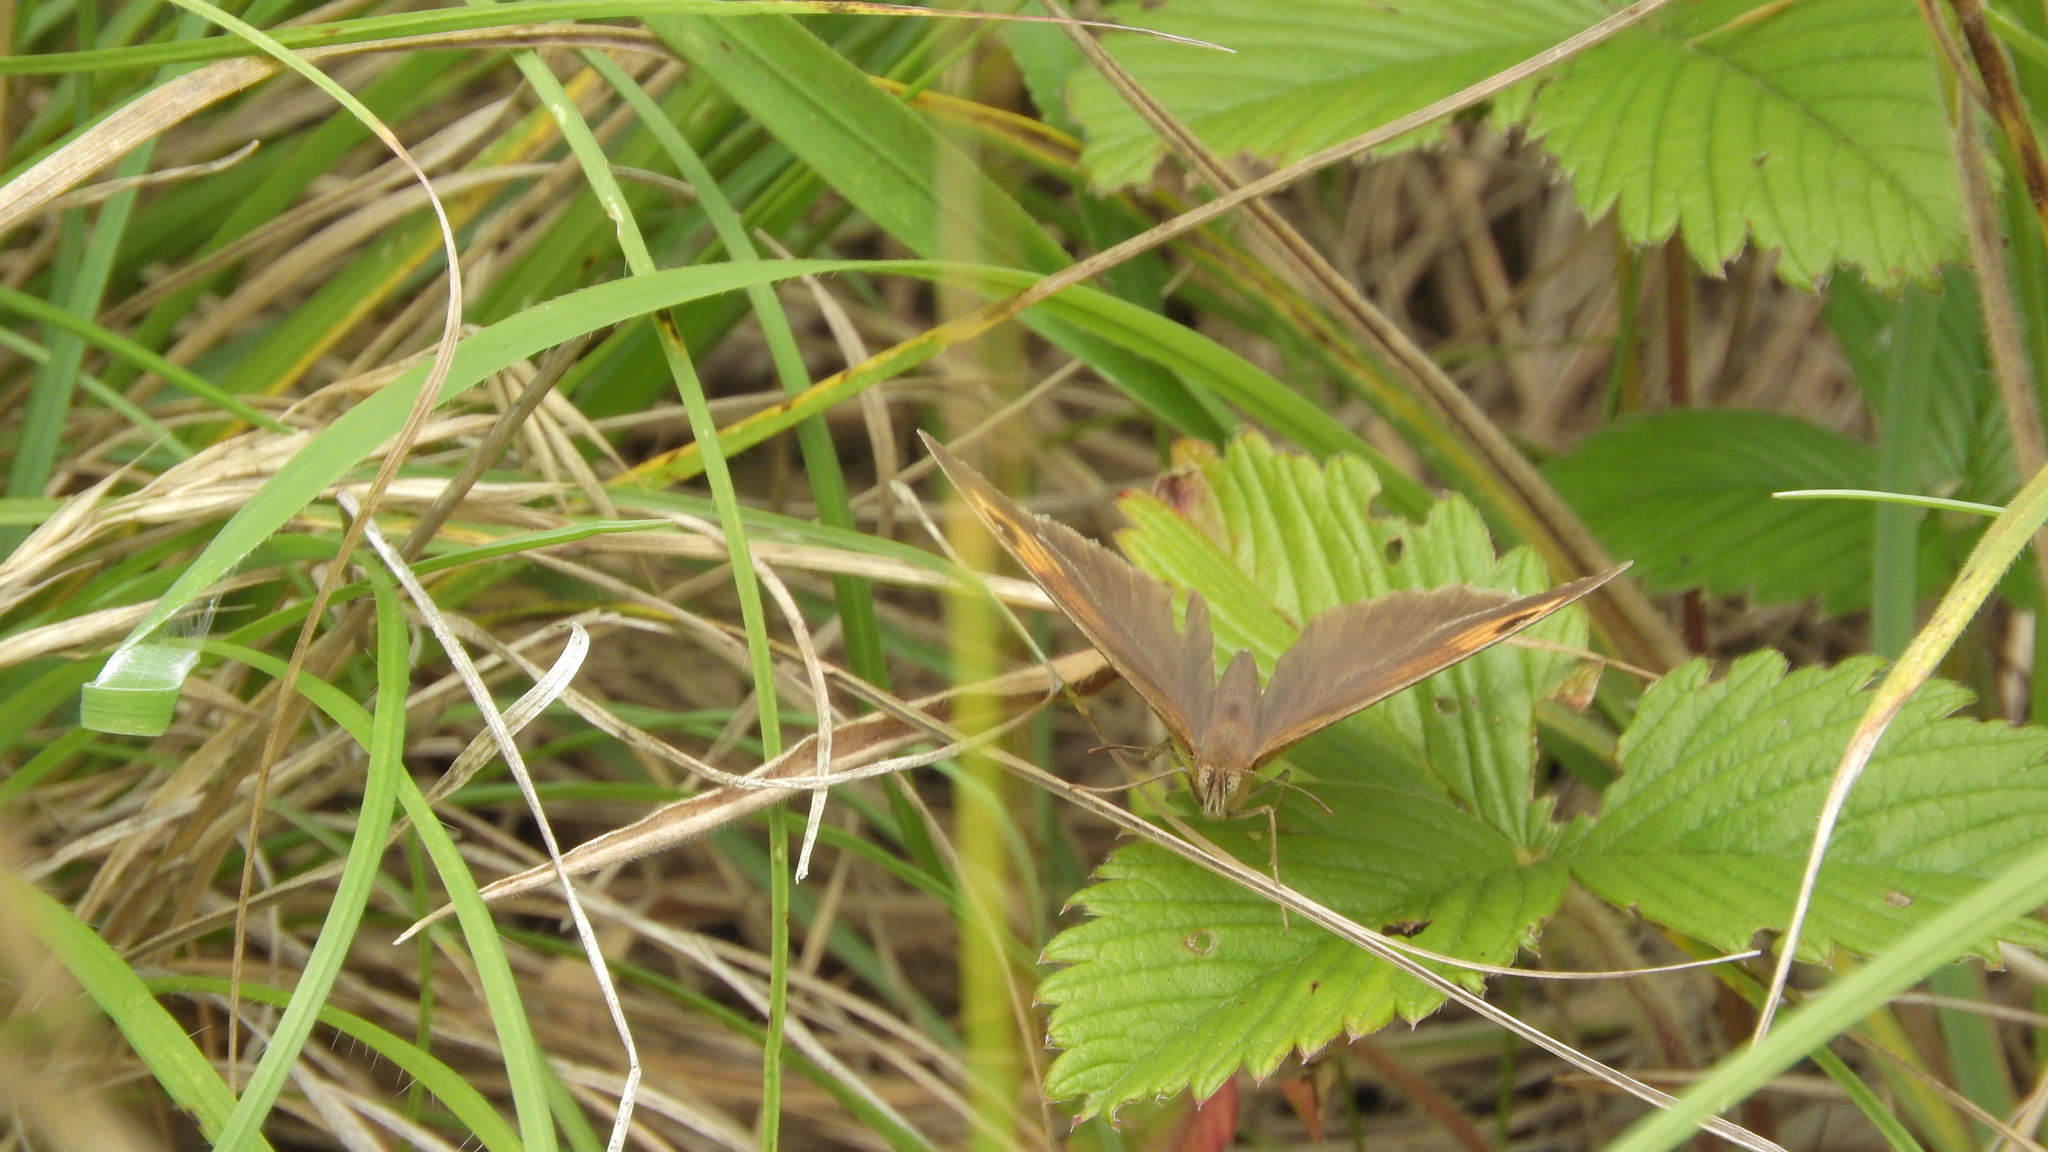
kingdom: Animalia
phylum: Arthropoda
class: Insecta
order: Lepidoptera
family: Nymphalidae
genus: Maniola
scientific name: Maniola jurtina
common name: Meadow brown
